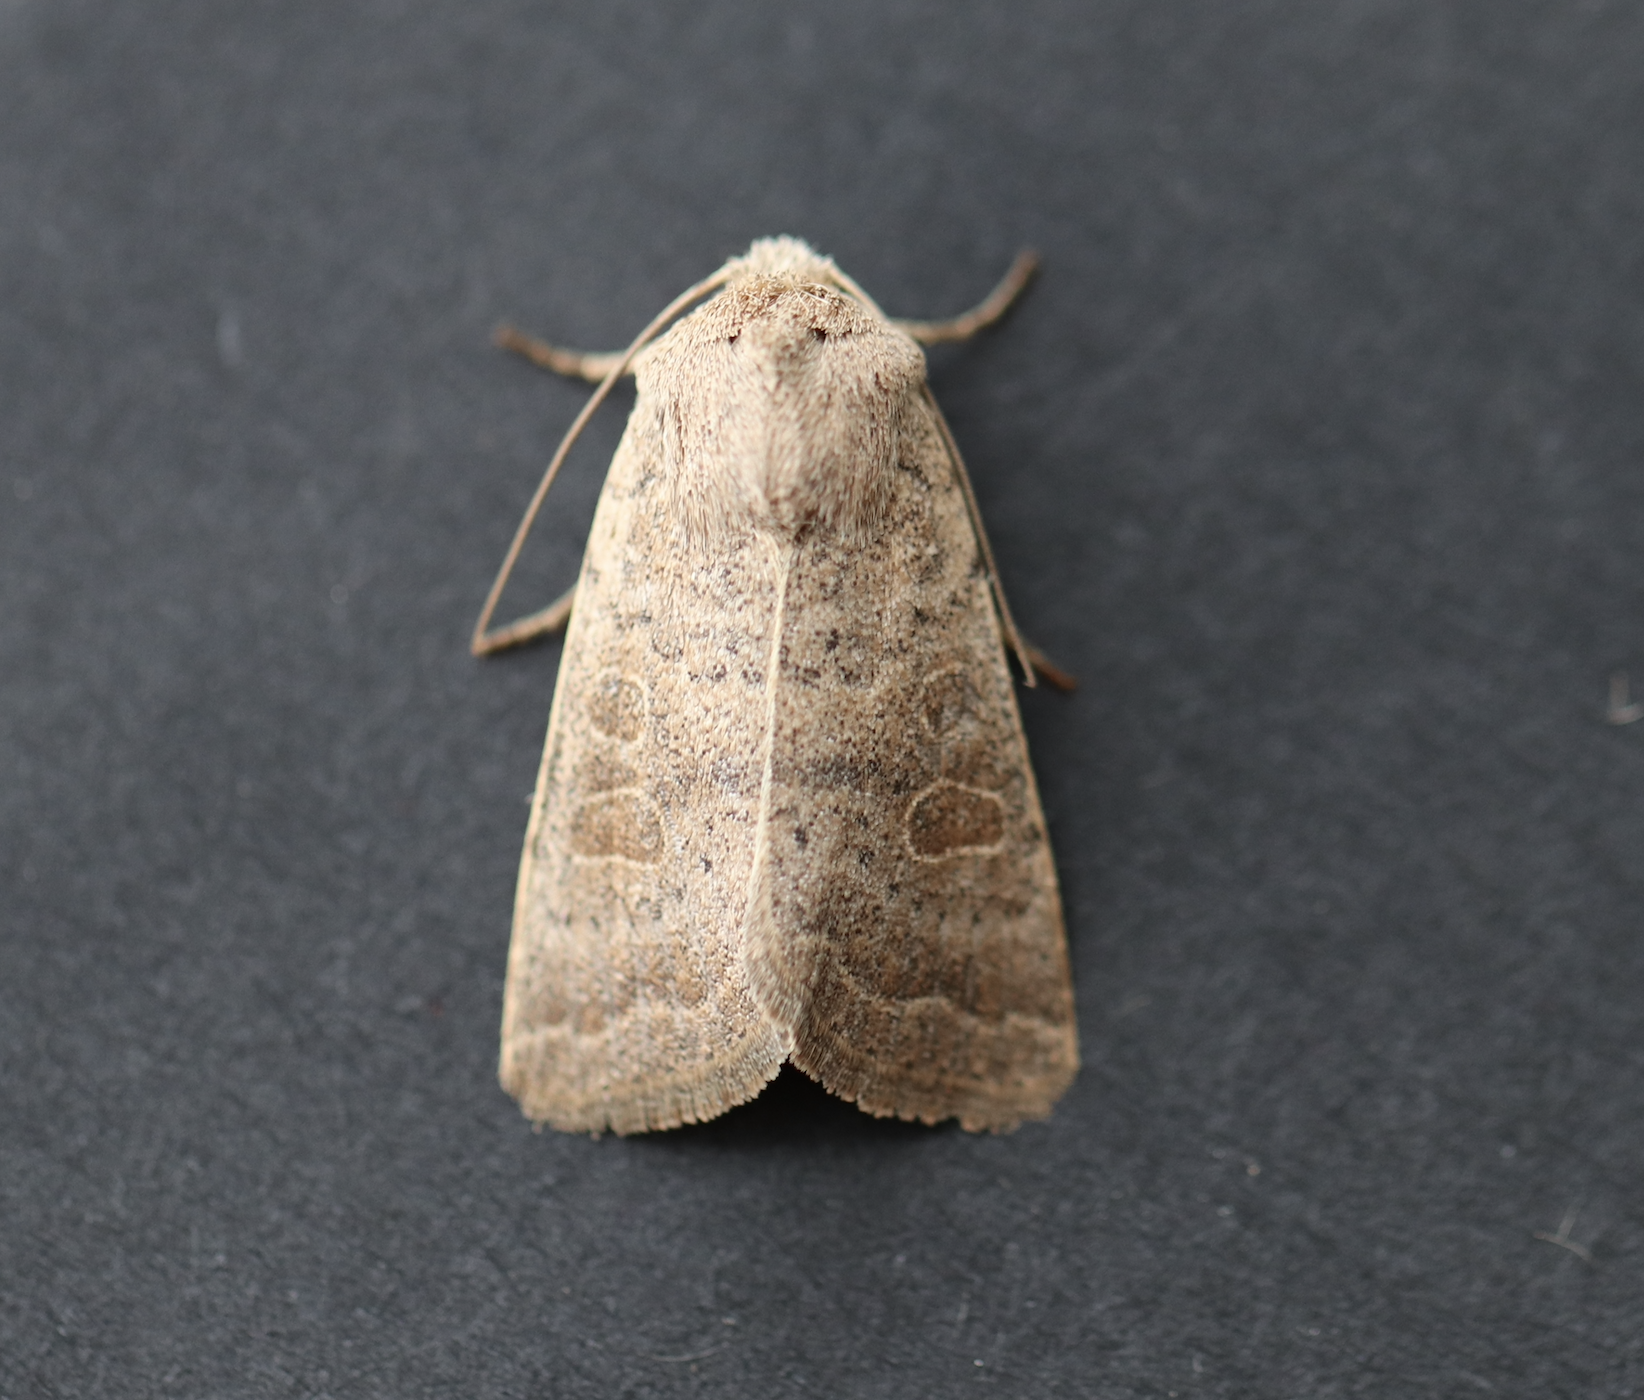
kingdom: Animalia
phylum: Arthropoda
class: Insecta
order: Lepidoptera
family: Noctuidae
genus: Hoplodrina
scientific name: Hoplodrina ambigua
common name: Vine's rustic
